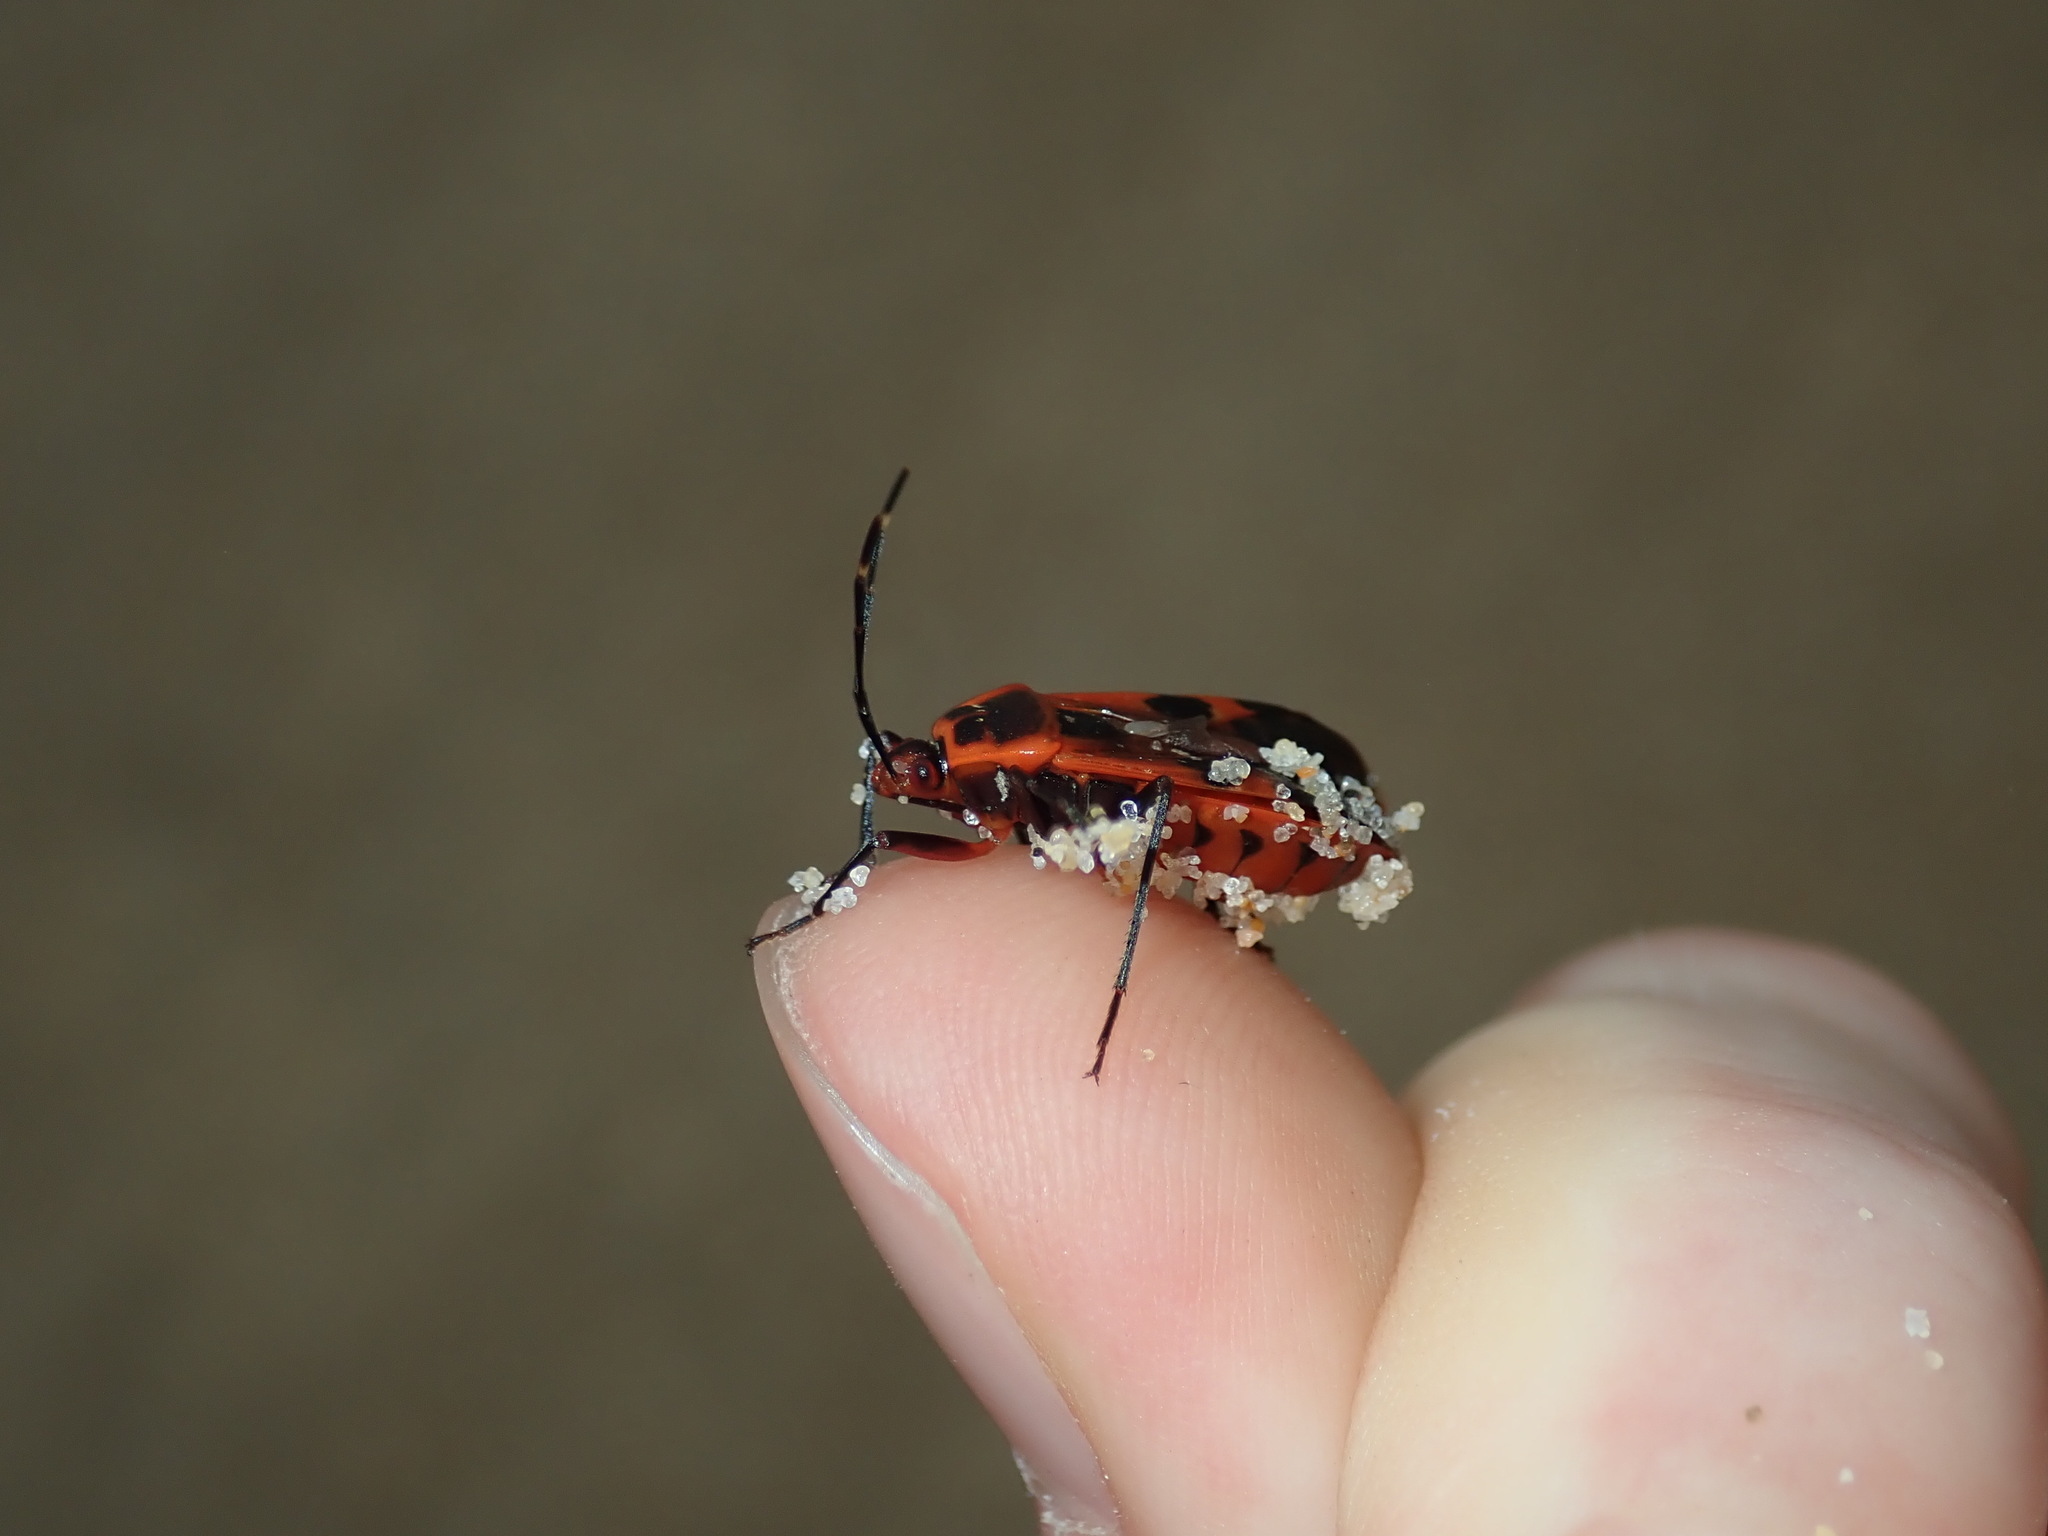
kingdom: Animalia
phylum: Arthropoda
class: Insecta
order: Hemiptera
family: Largidae
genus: Physopelta
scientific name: Physopelta gutta
